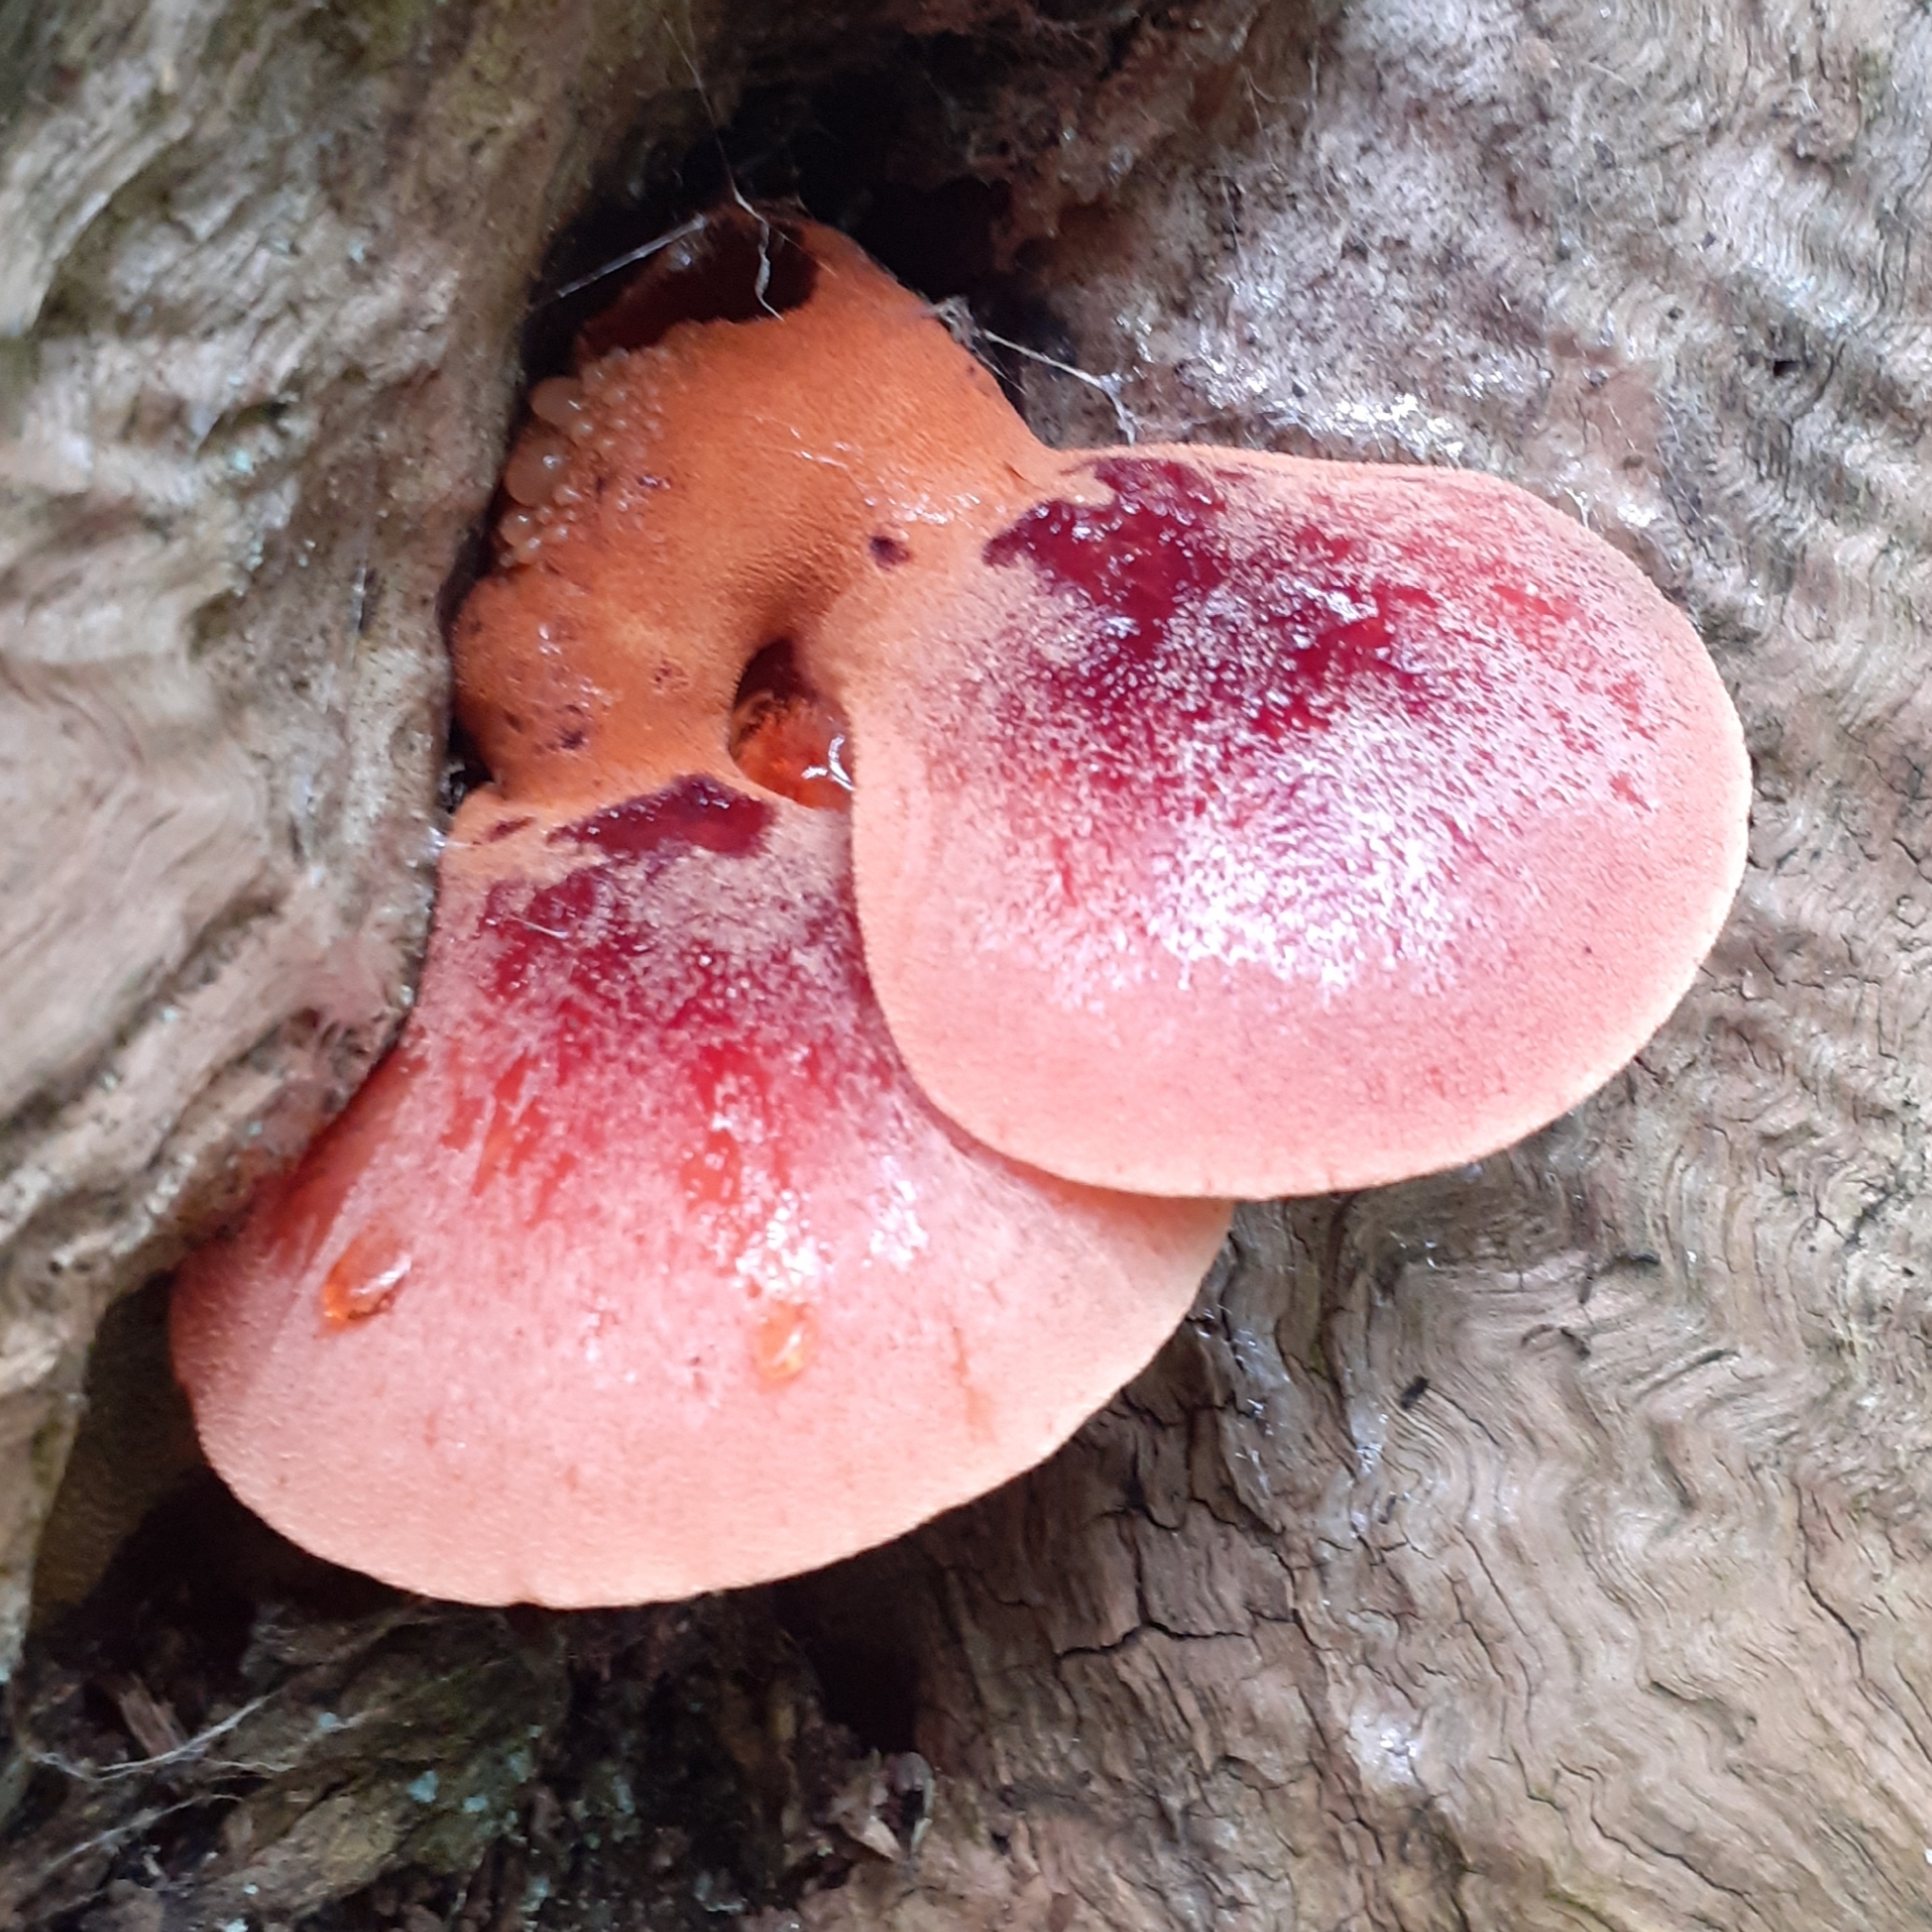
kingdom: Fungi
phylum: Basidiomycota
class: Agaricomycetes
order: Agaricales
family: Fistulinaceae
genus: Fistulina
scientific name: Fistulina hepatica
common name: Beef-steak fungus
